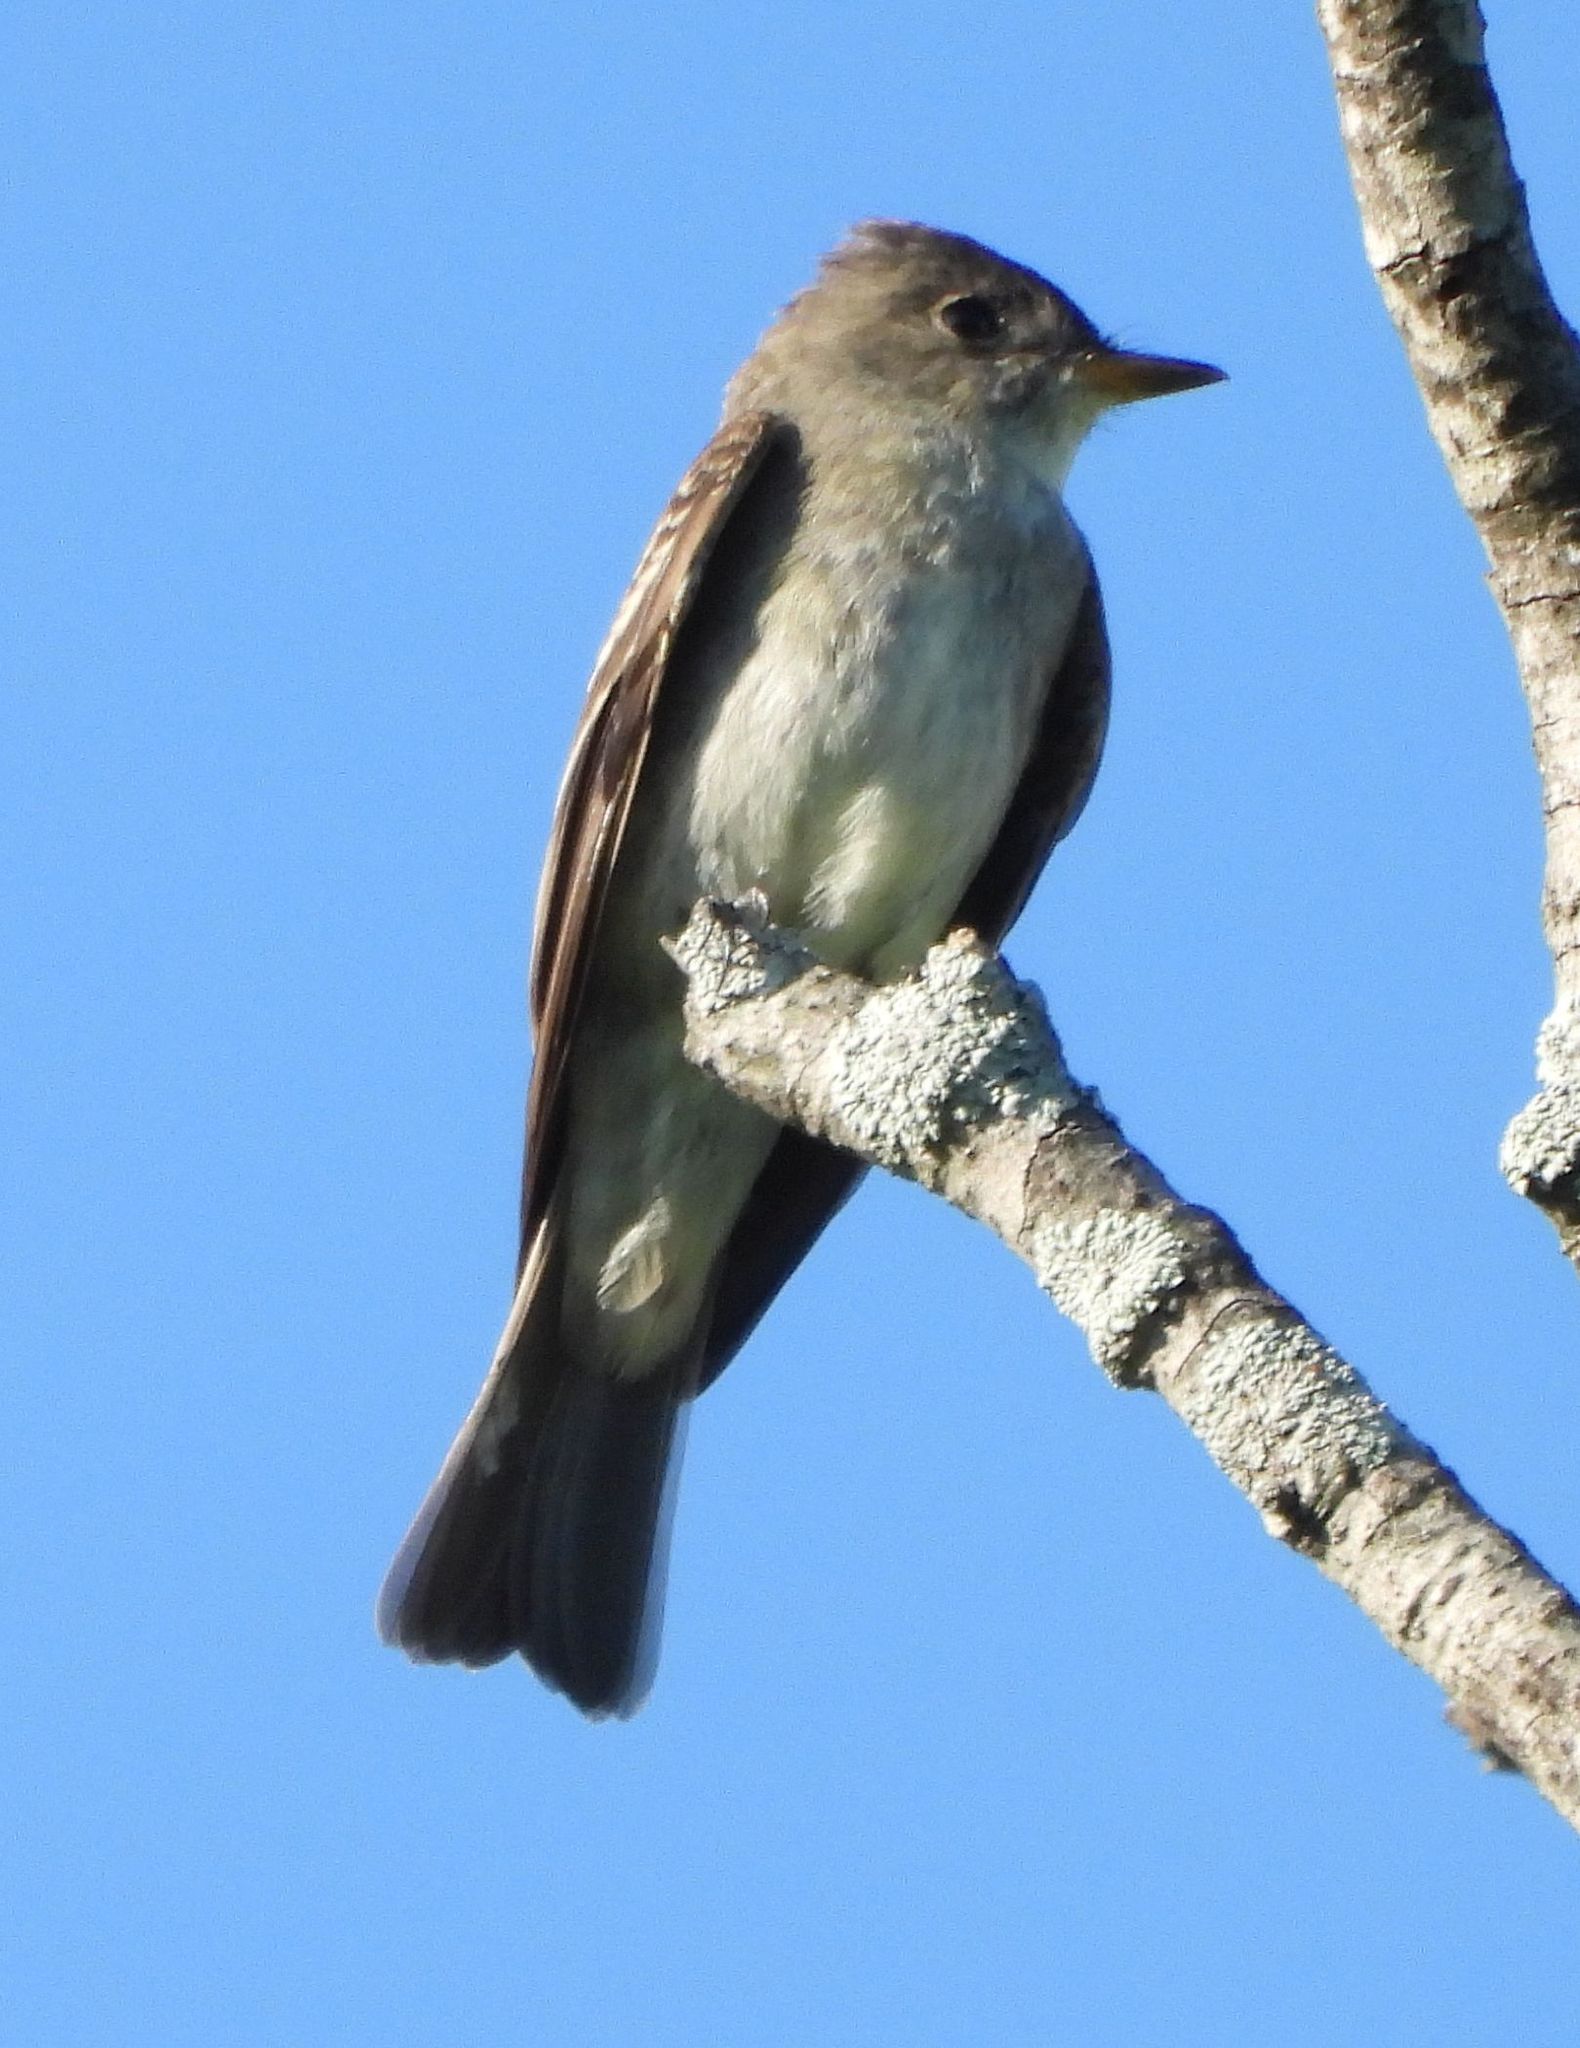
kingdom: Animalia
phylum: Chordata
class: Aves
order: Passeriformes
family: Tyrannidae
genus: Contopus
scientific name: Contopus virens
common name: Eastern wood-pewee
